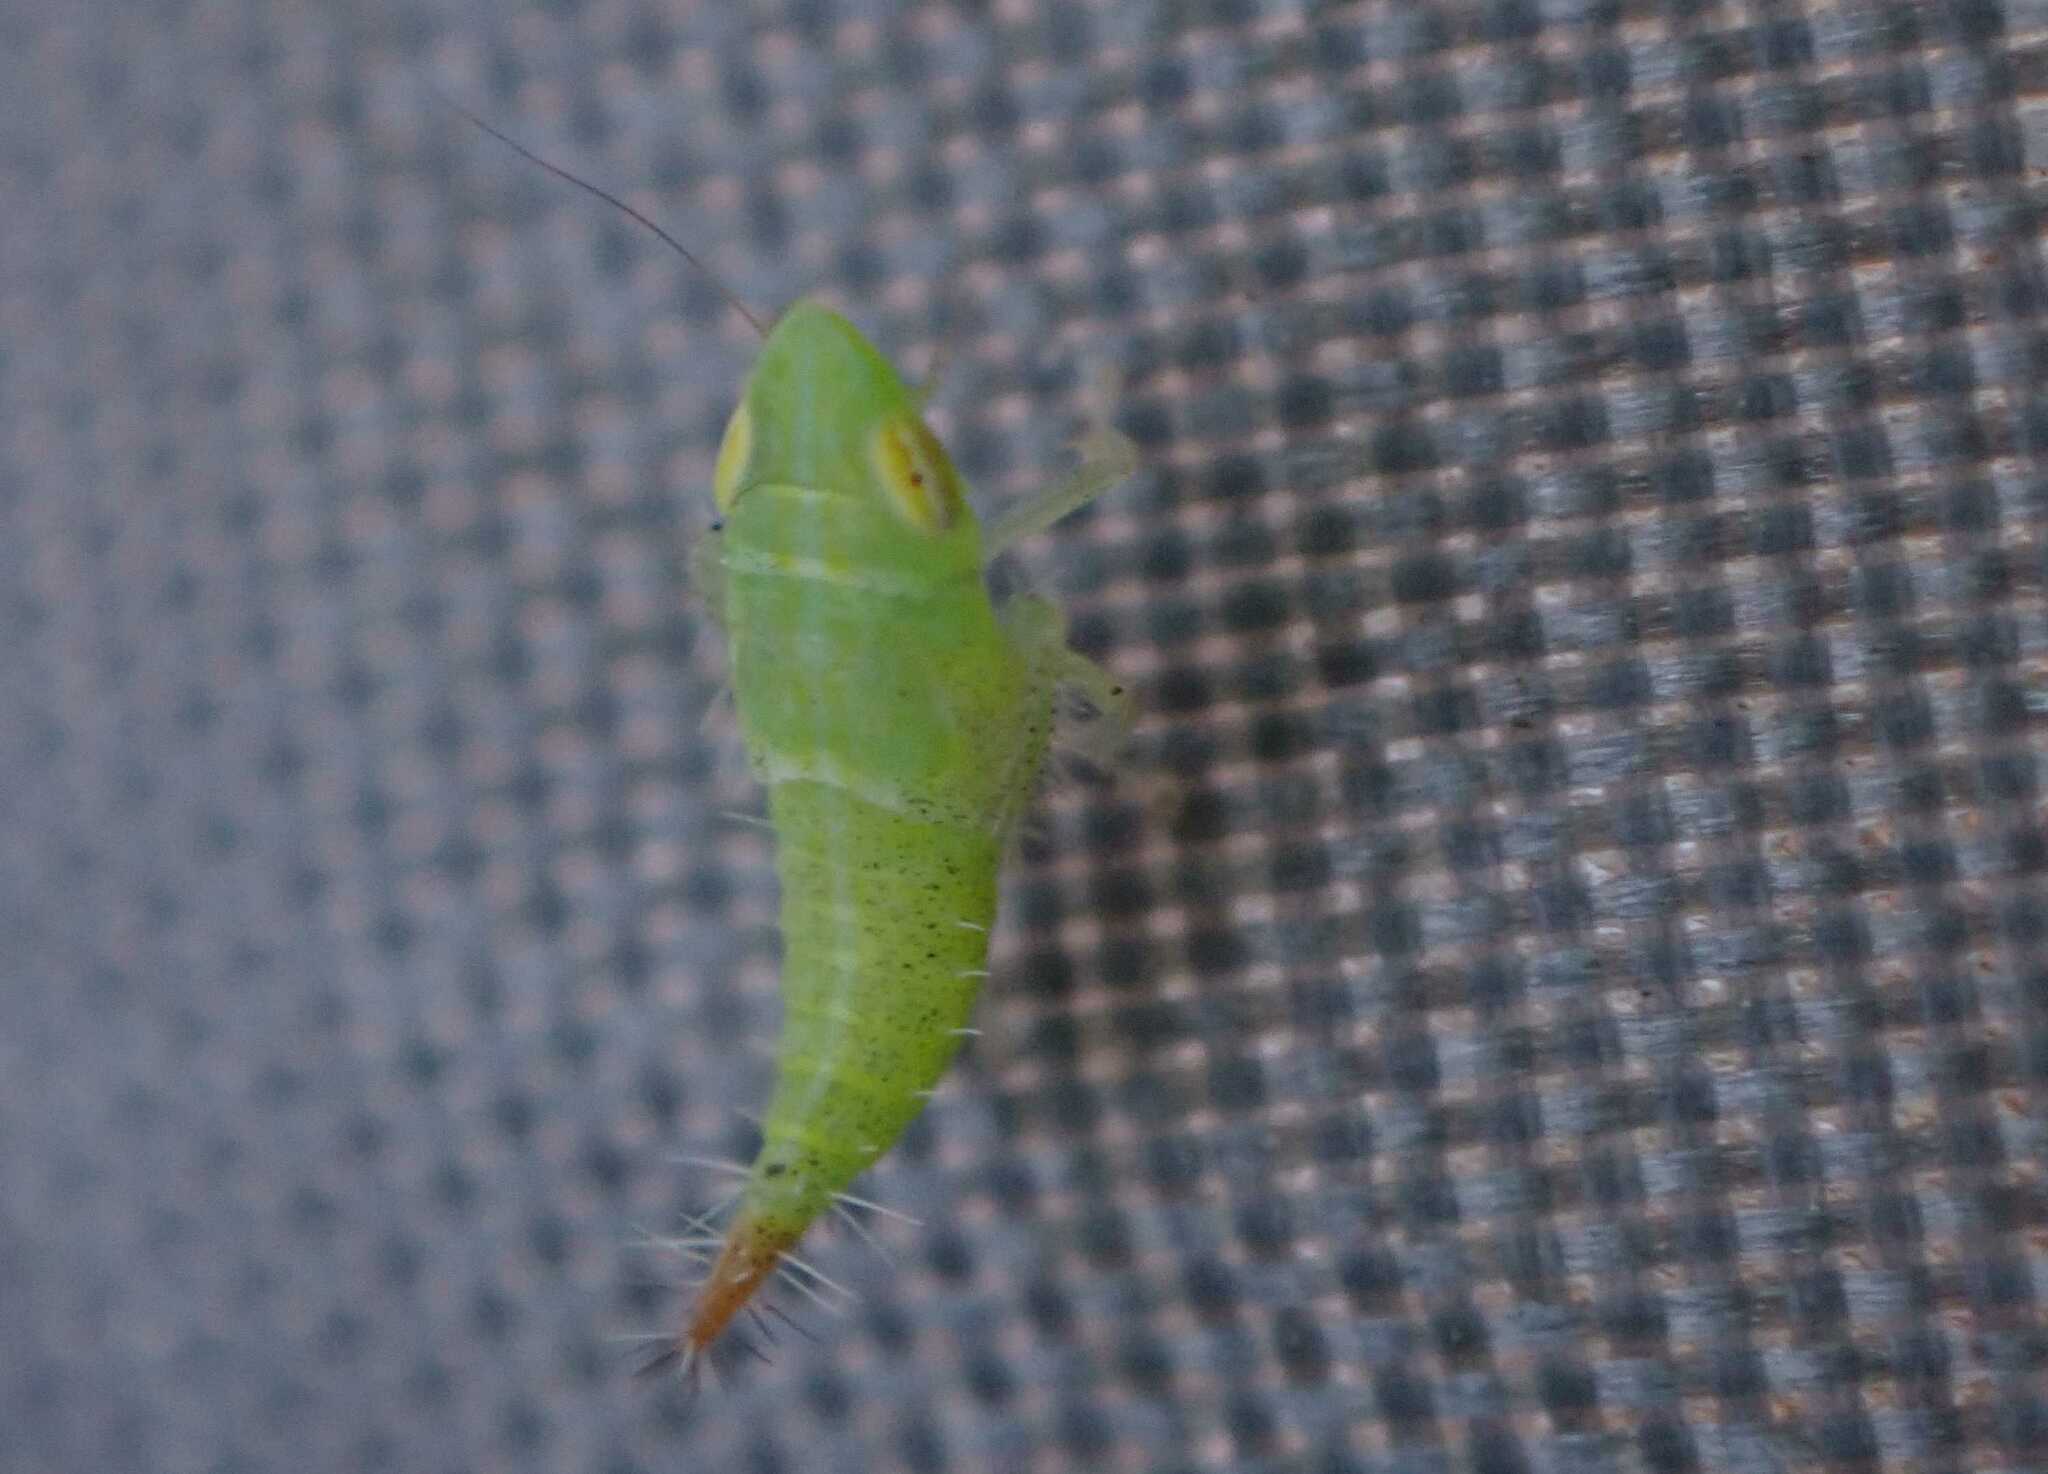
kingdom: Animalia
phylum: Arthropoda
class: Insecta
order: Hemiptera
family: Cicadellidae
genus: Fieberiella
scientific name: Fieberiella
